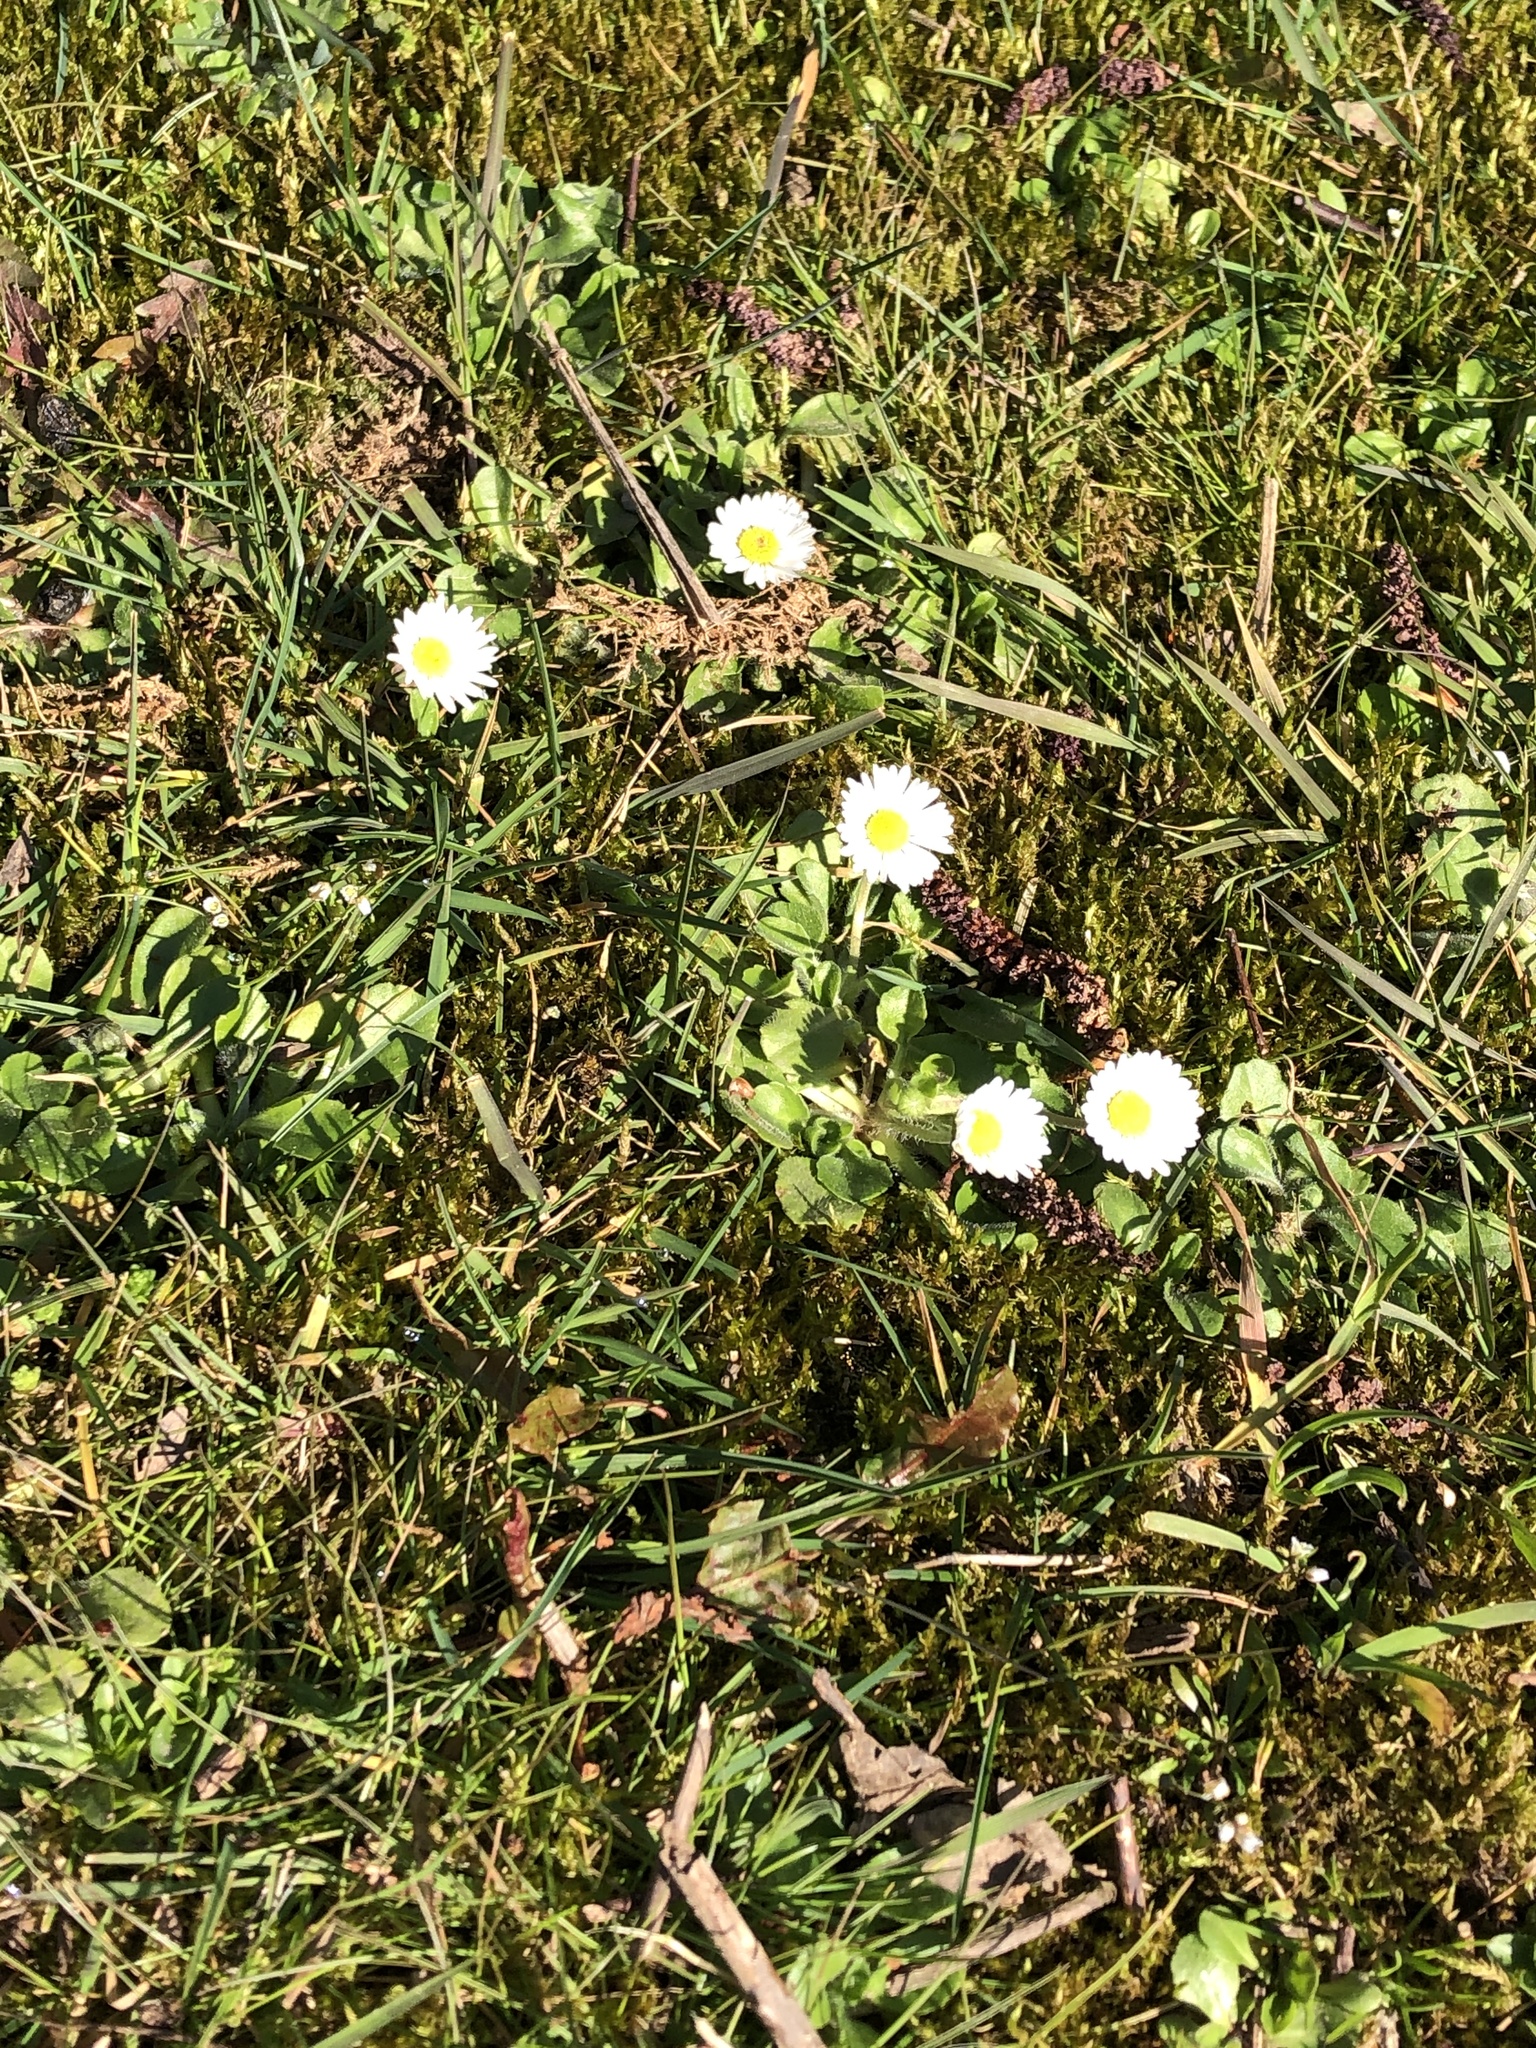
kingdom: Plantae
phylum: Tracheophyta
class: Magnoliopsida
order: Asterales
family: Asteraceae
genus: Bellis
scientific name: Bellis perennis
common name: Lawndaisy
